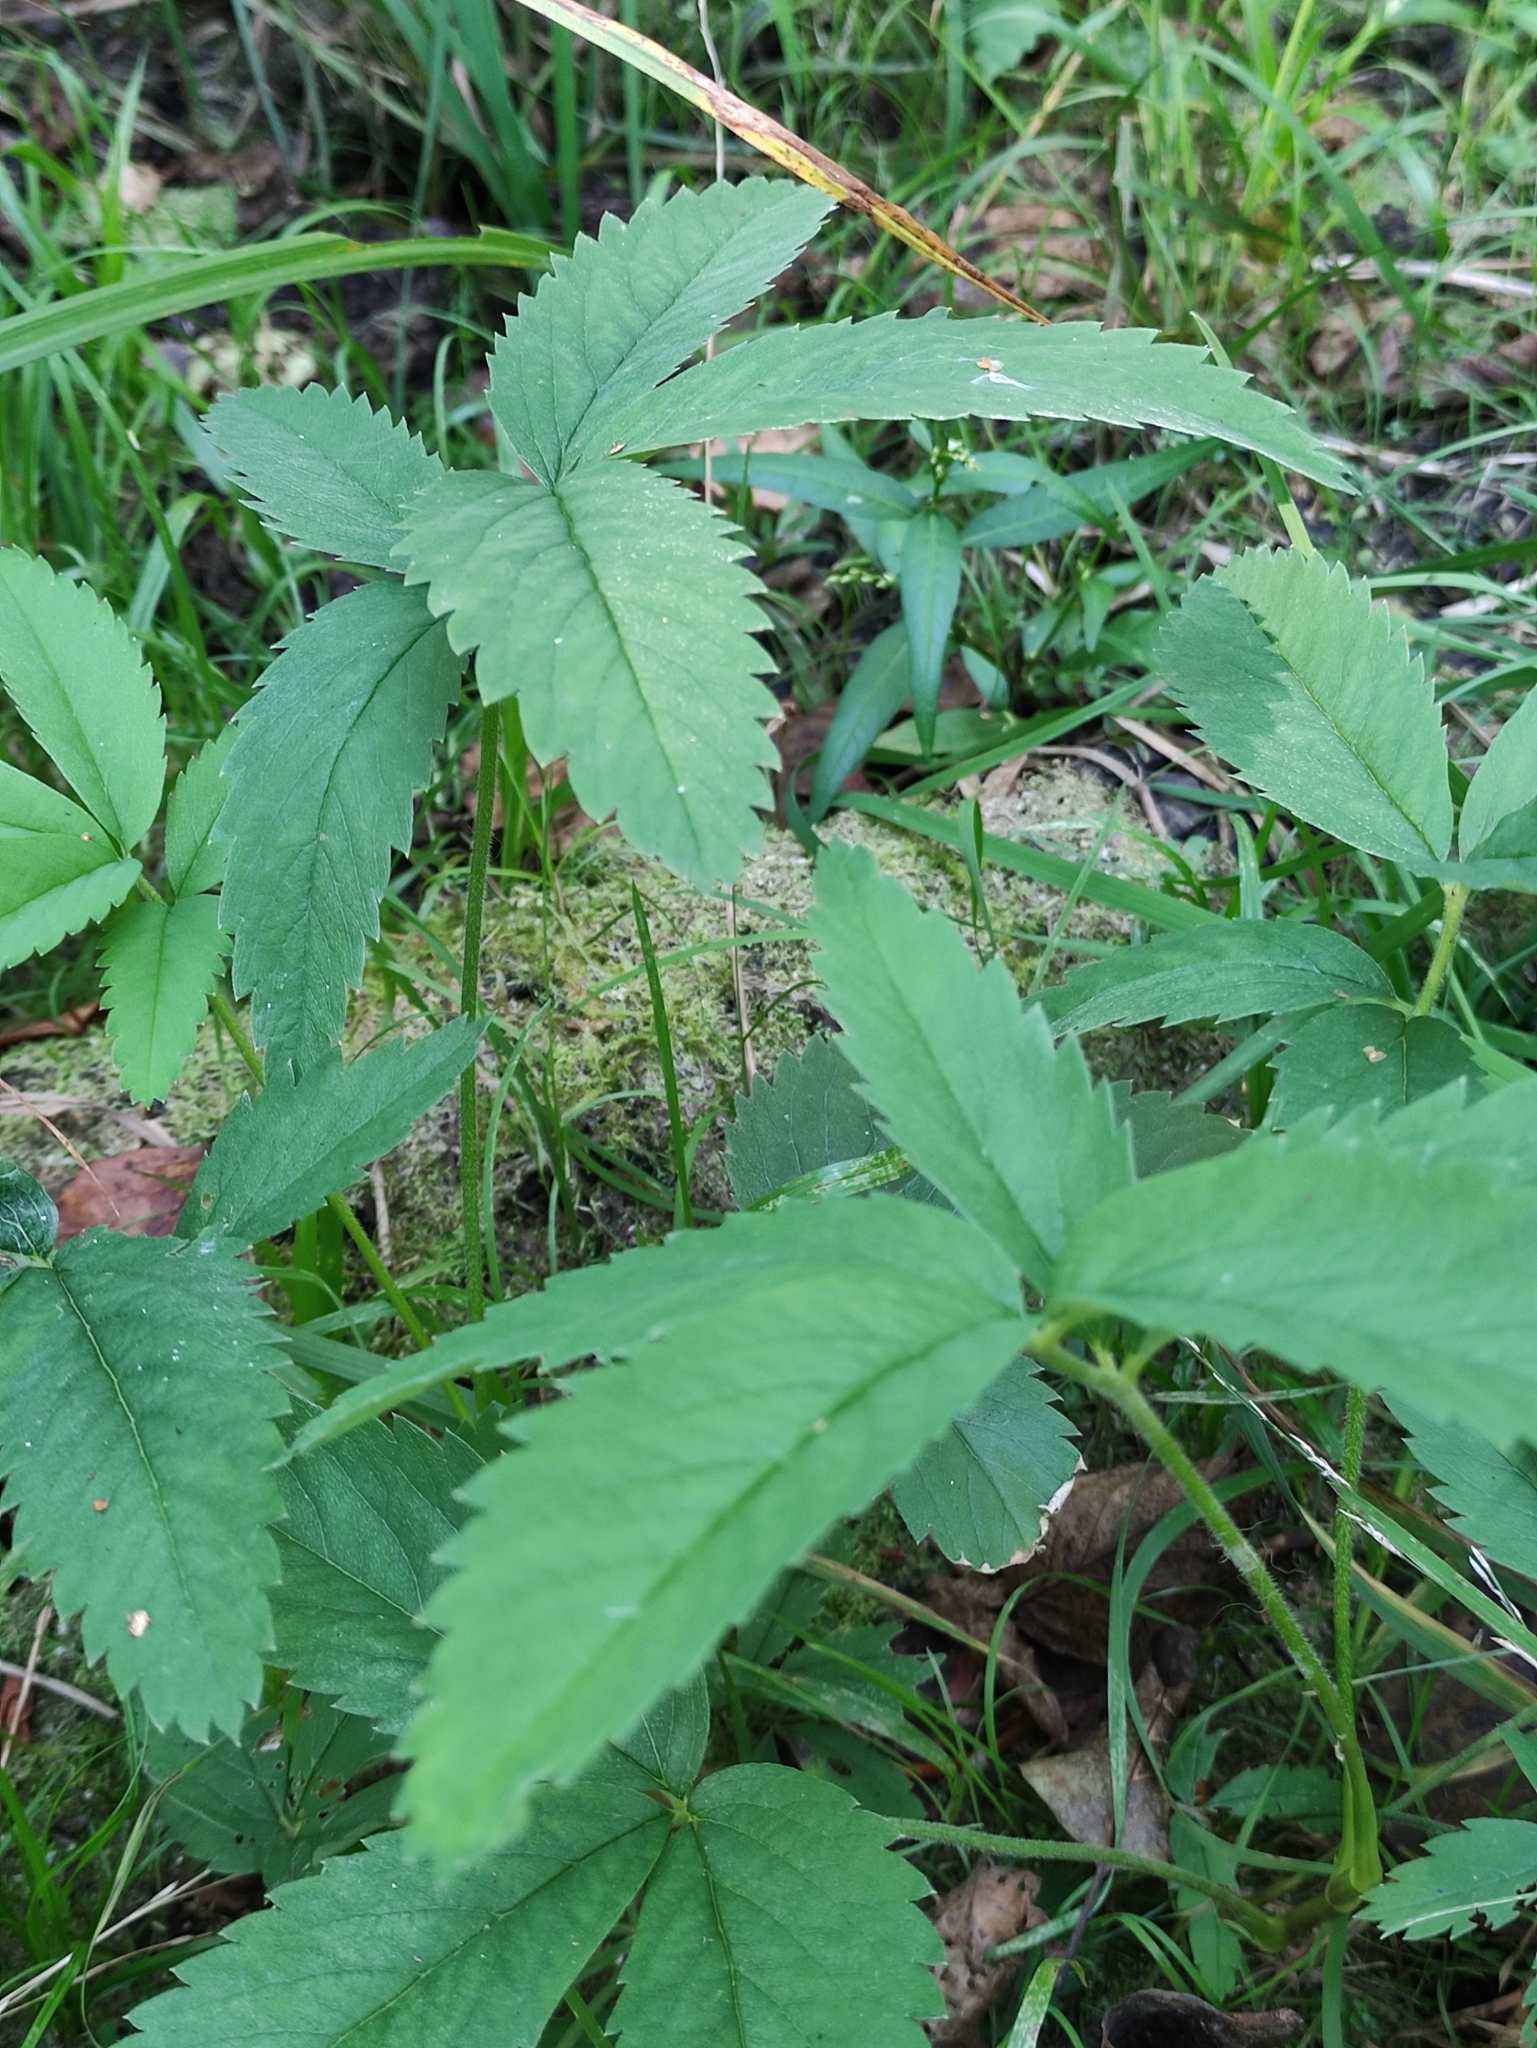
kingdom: Plantae
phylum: Tracheophyta
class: Magnoliopsida
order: Rosales
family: Rosaceae
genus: Comarum
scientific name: Comarum palustre
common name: Marsh cinquefoil
